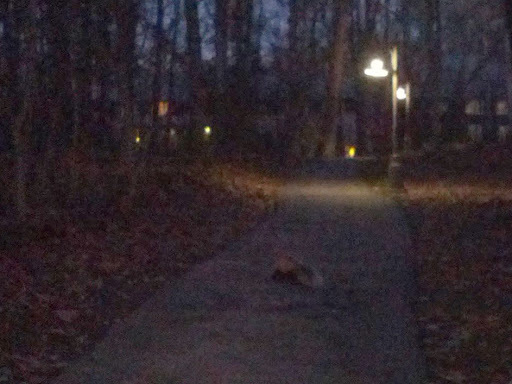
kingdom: Animalia
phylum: Chordata
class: Mammalia
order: Carnivora
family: Mephitidae
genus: Mephitis
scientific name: Mephitis mephitis
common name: Striped skunk
